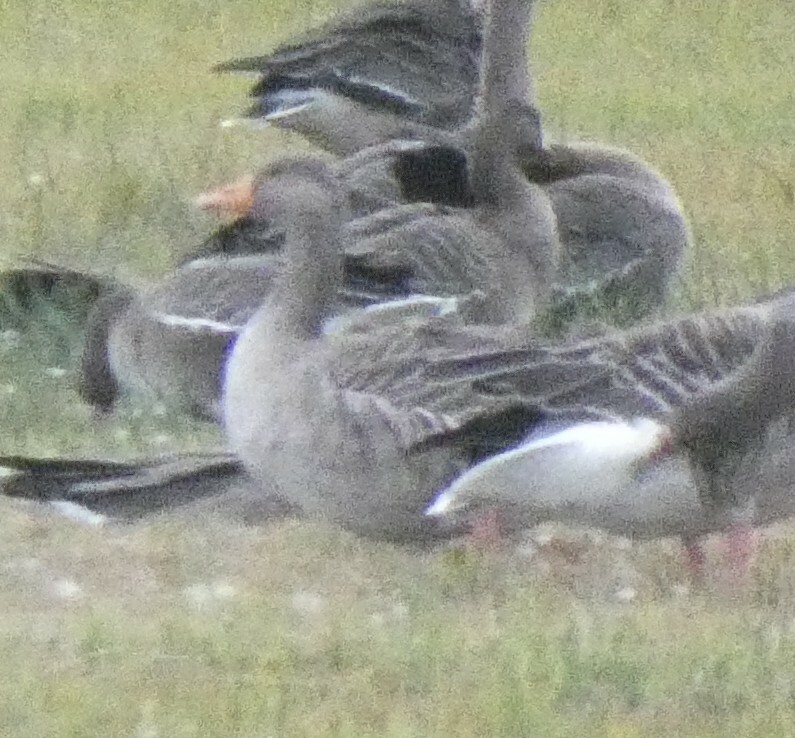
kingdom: Animalia
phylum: Chordata
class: Aves
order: Anseriformes
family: Anatidae
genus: Anser
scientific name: Anser anser
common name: Greylag goose
